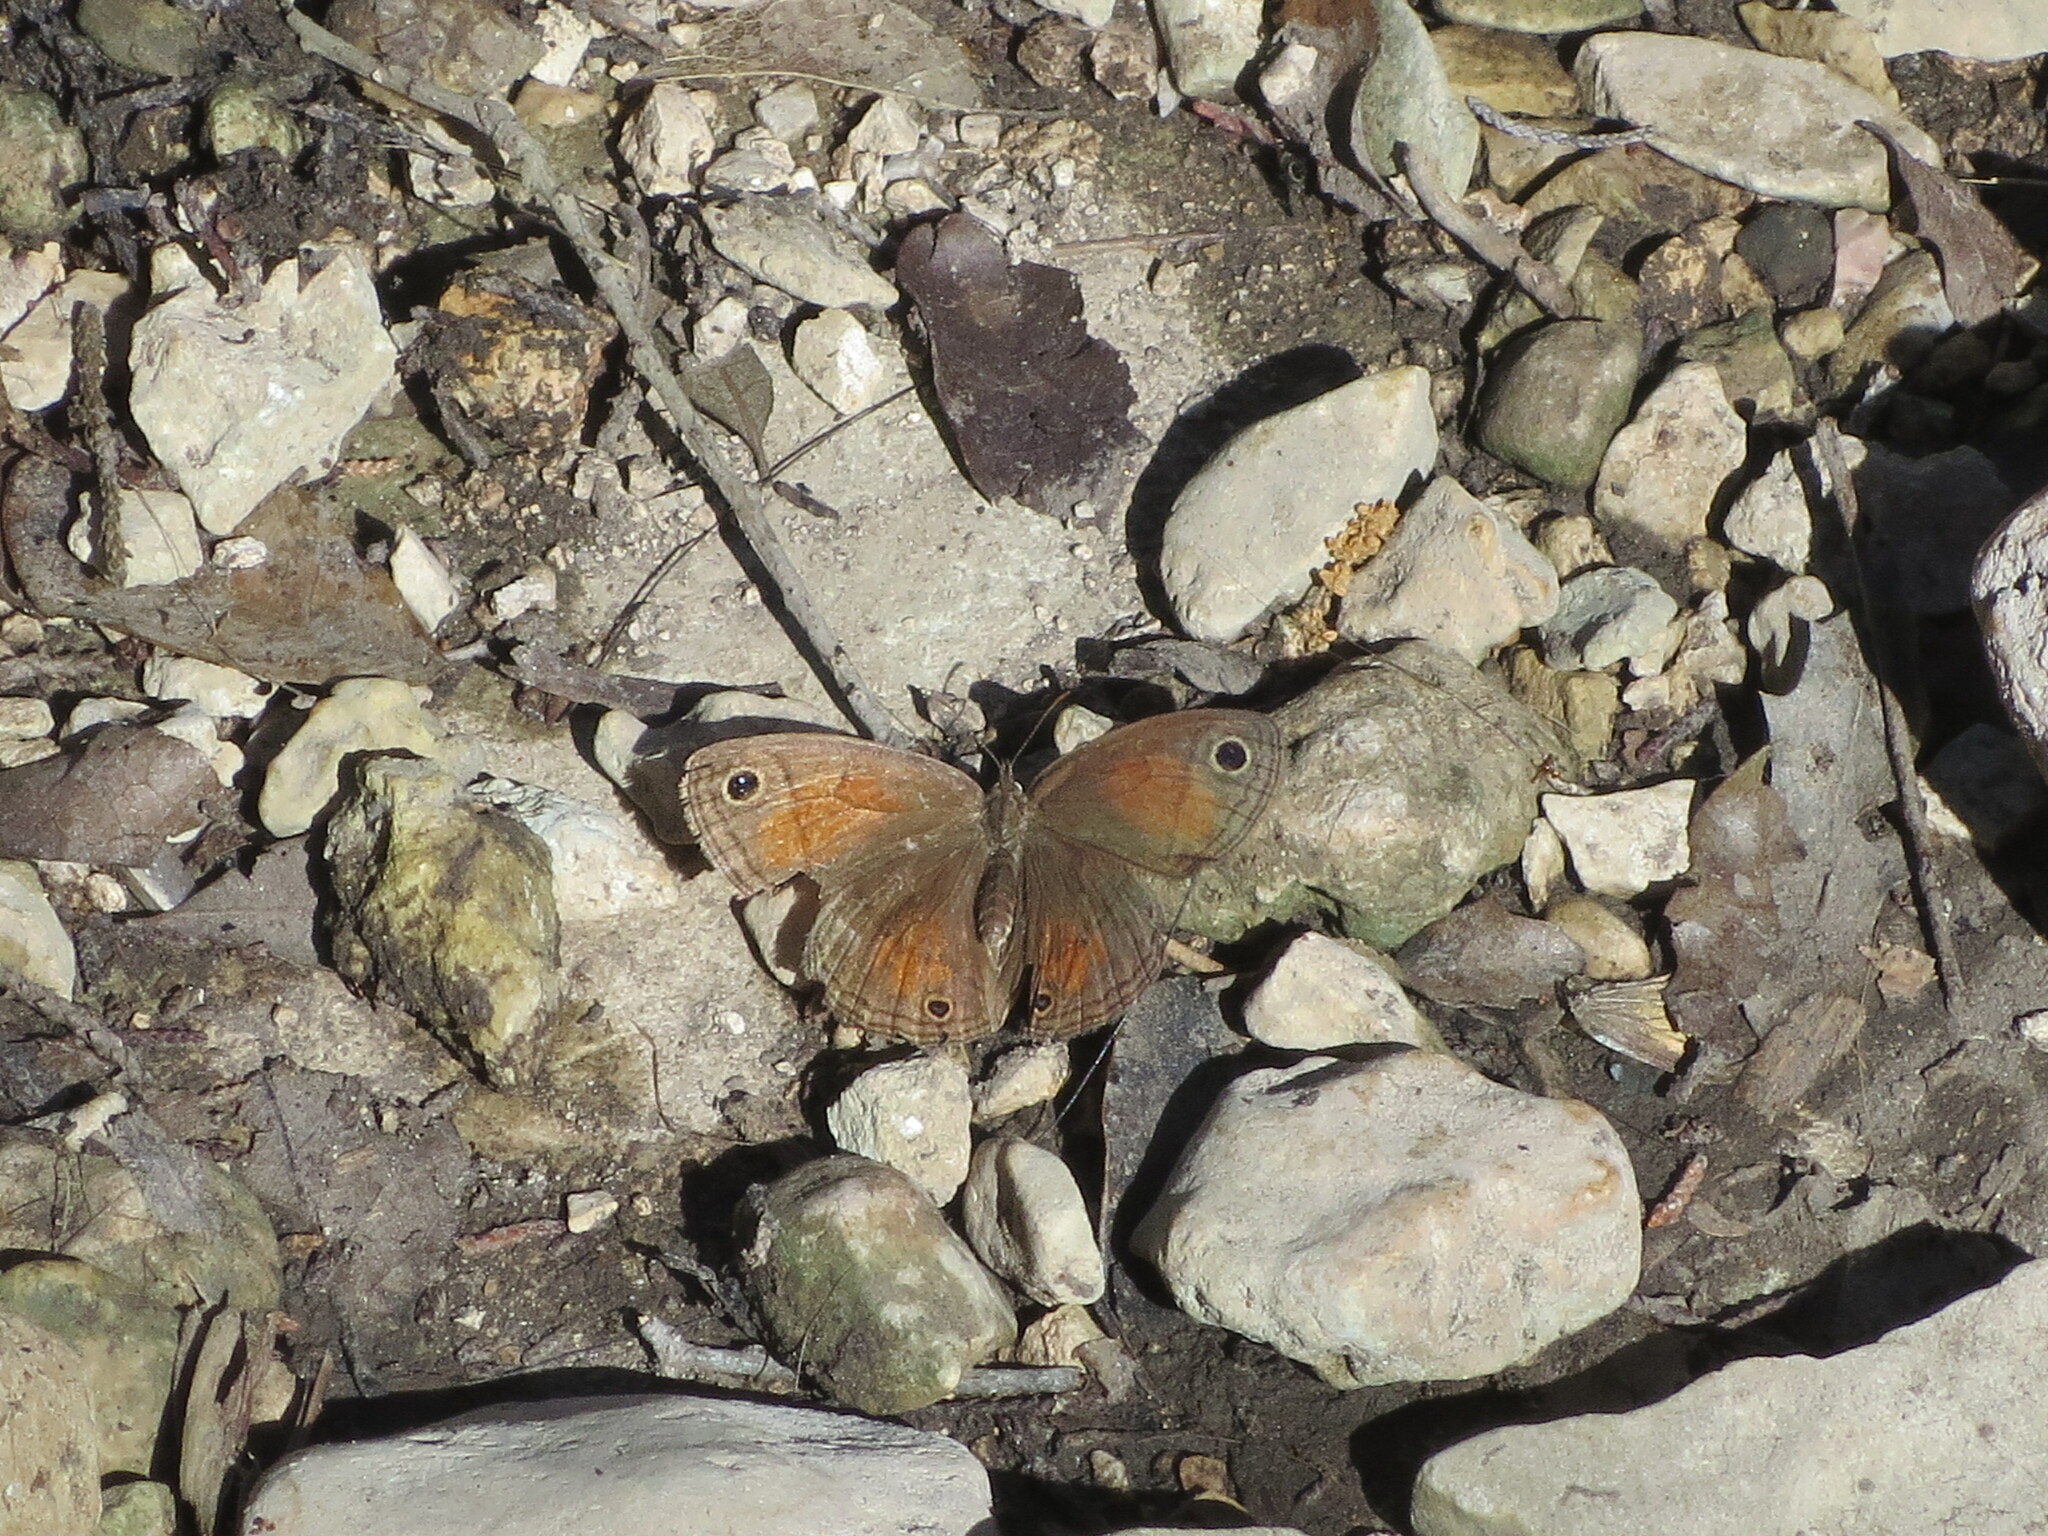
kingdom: Animalia
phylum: Arthropoda
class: Insecta
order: Lepidoptera
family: Nymphalidae
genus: Euptychia
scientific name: Euptychia Cissia rubricata
